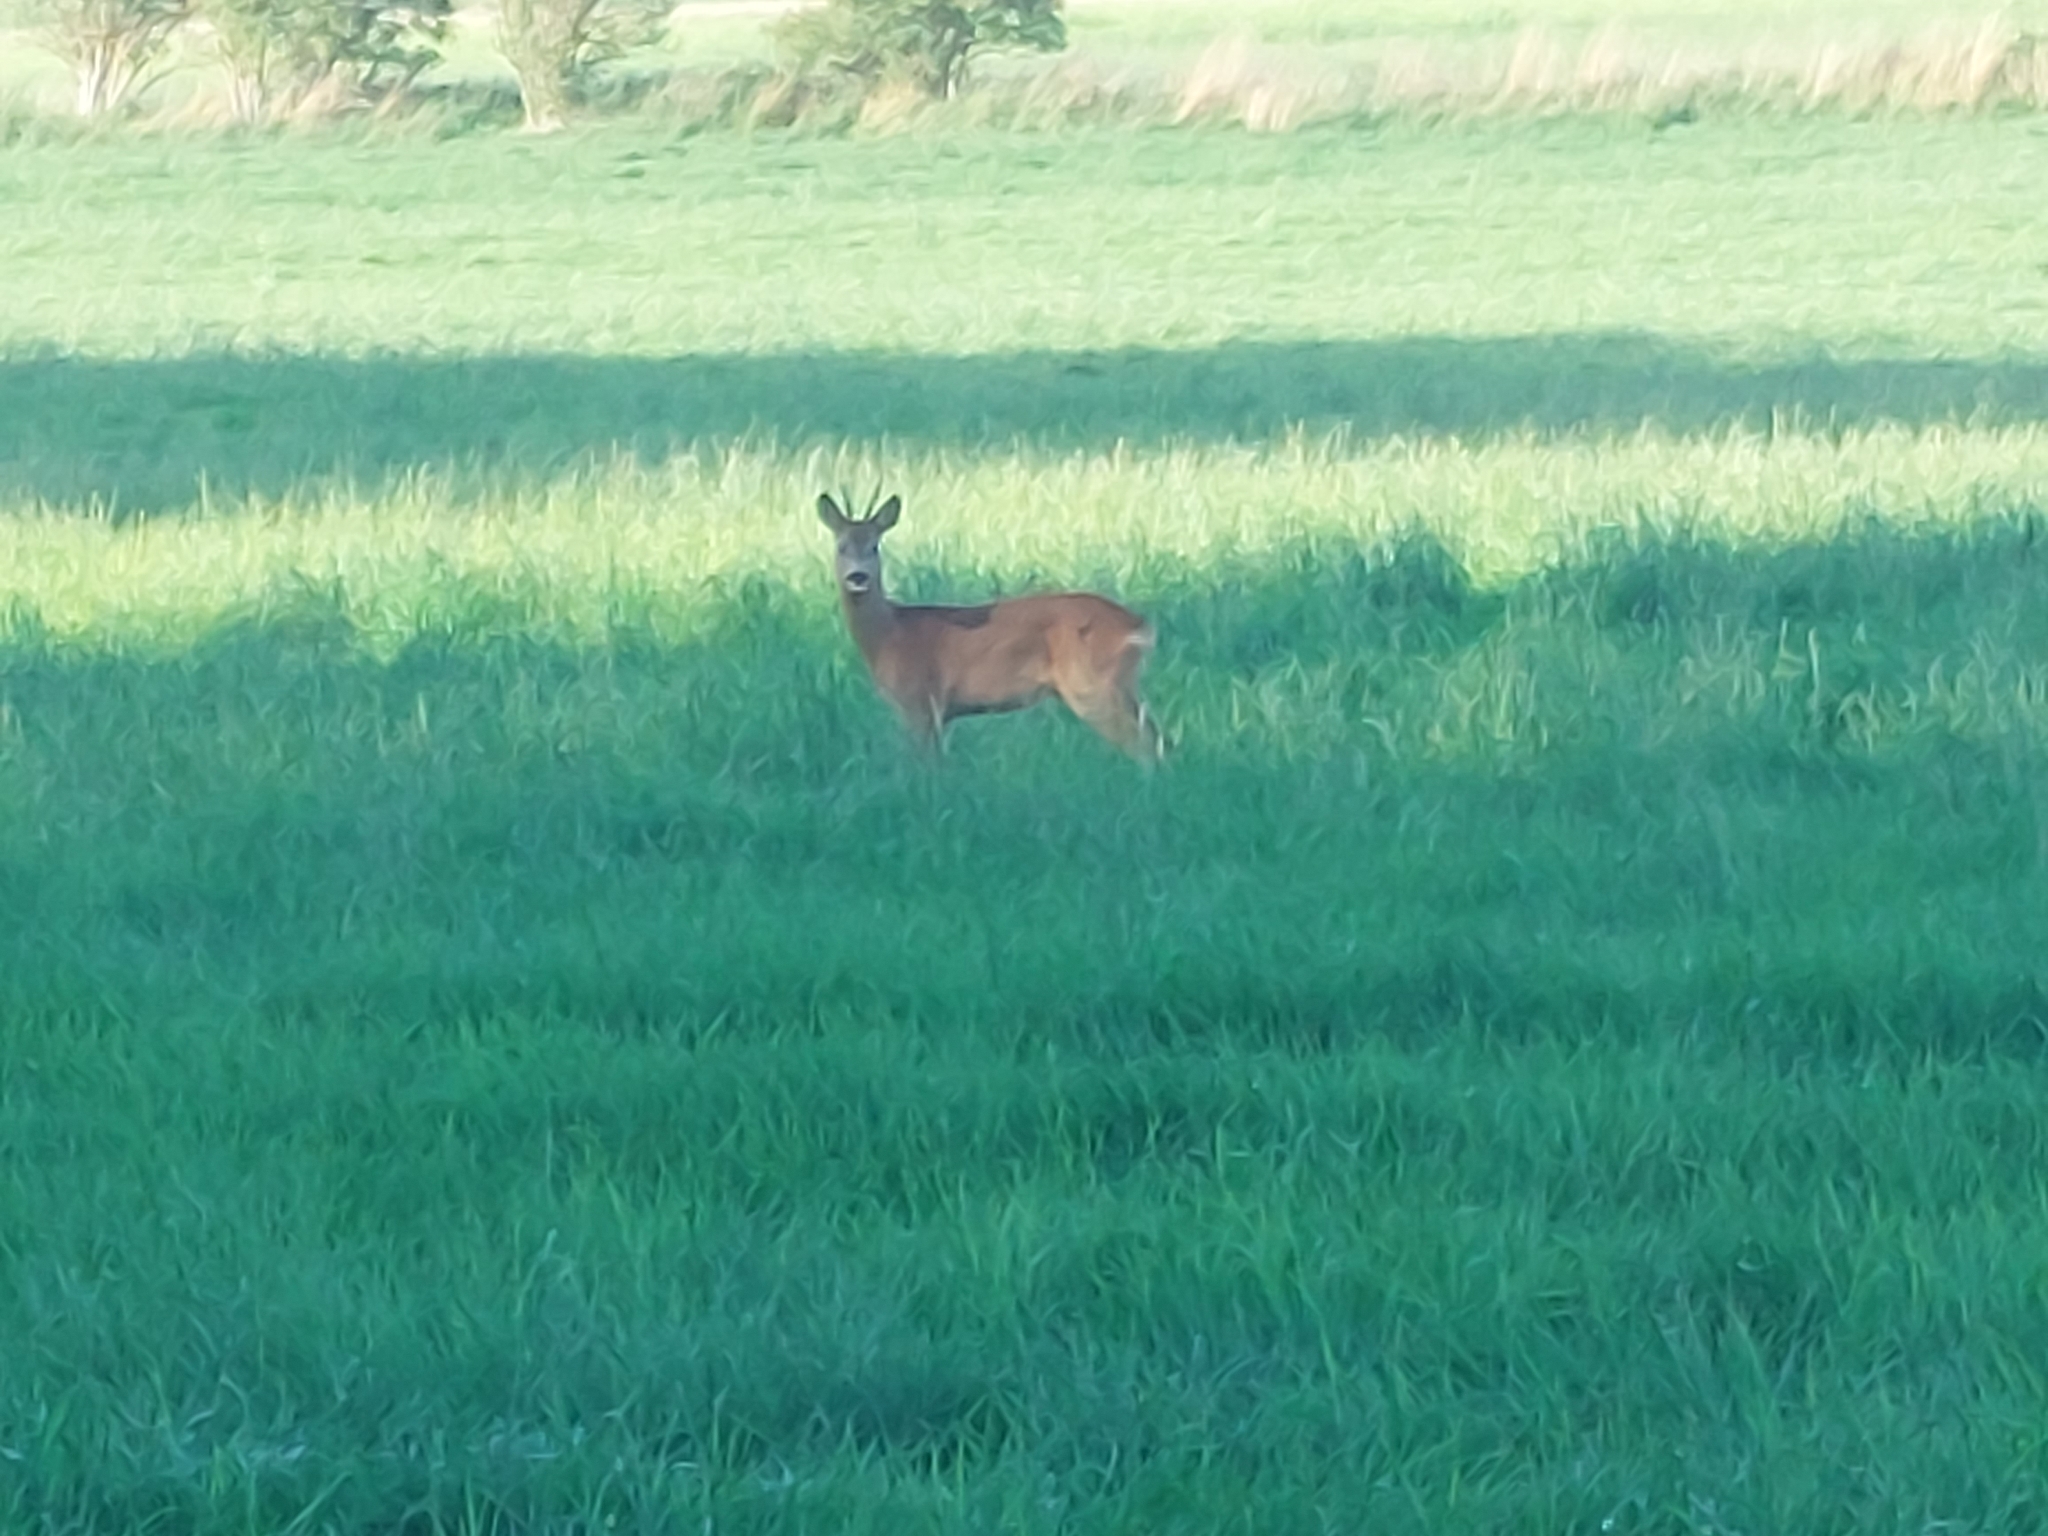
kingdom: Animalia
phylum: Chordata
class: Mammalia
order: Artiodactyla
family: Cervidae
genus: Capreolus
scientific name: Capreolus capreolus
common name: Western roe deer
